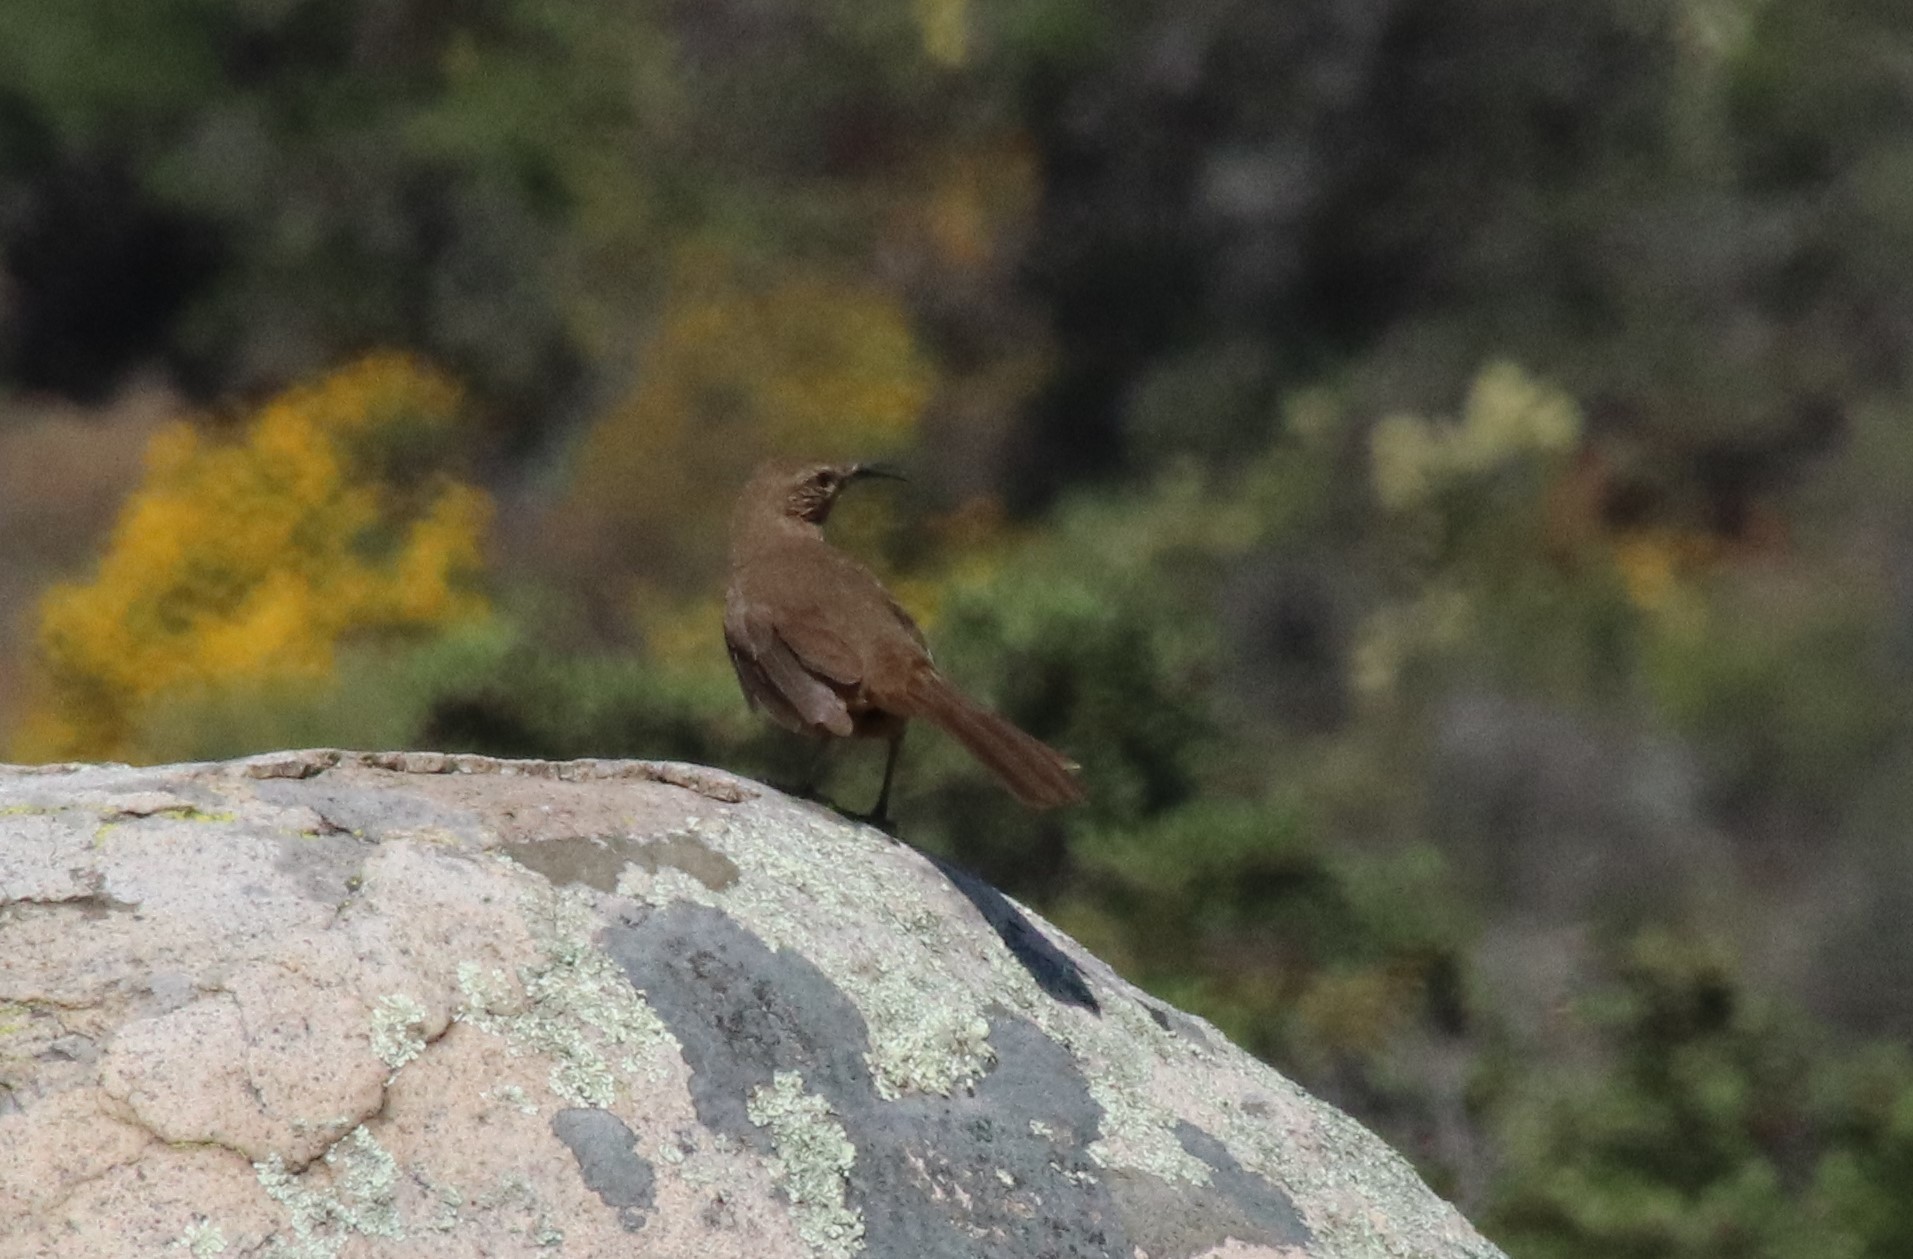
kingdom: Animalia
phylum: Chordata
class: Aves
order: Passeriformes
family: Mimidae
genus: Toxostoma
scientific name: Toxostoma redivivum
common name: California thrasher
